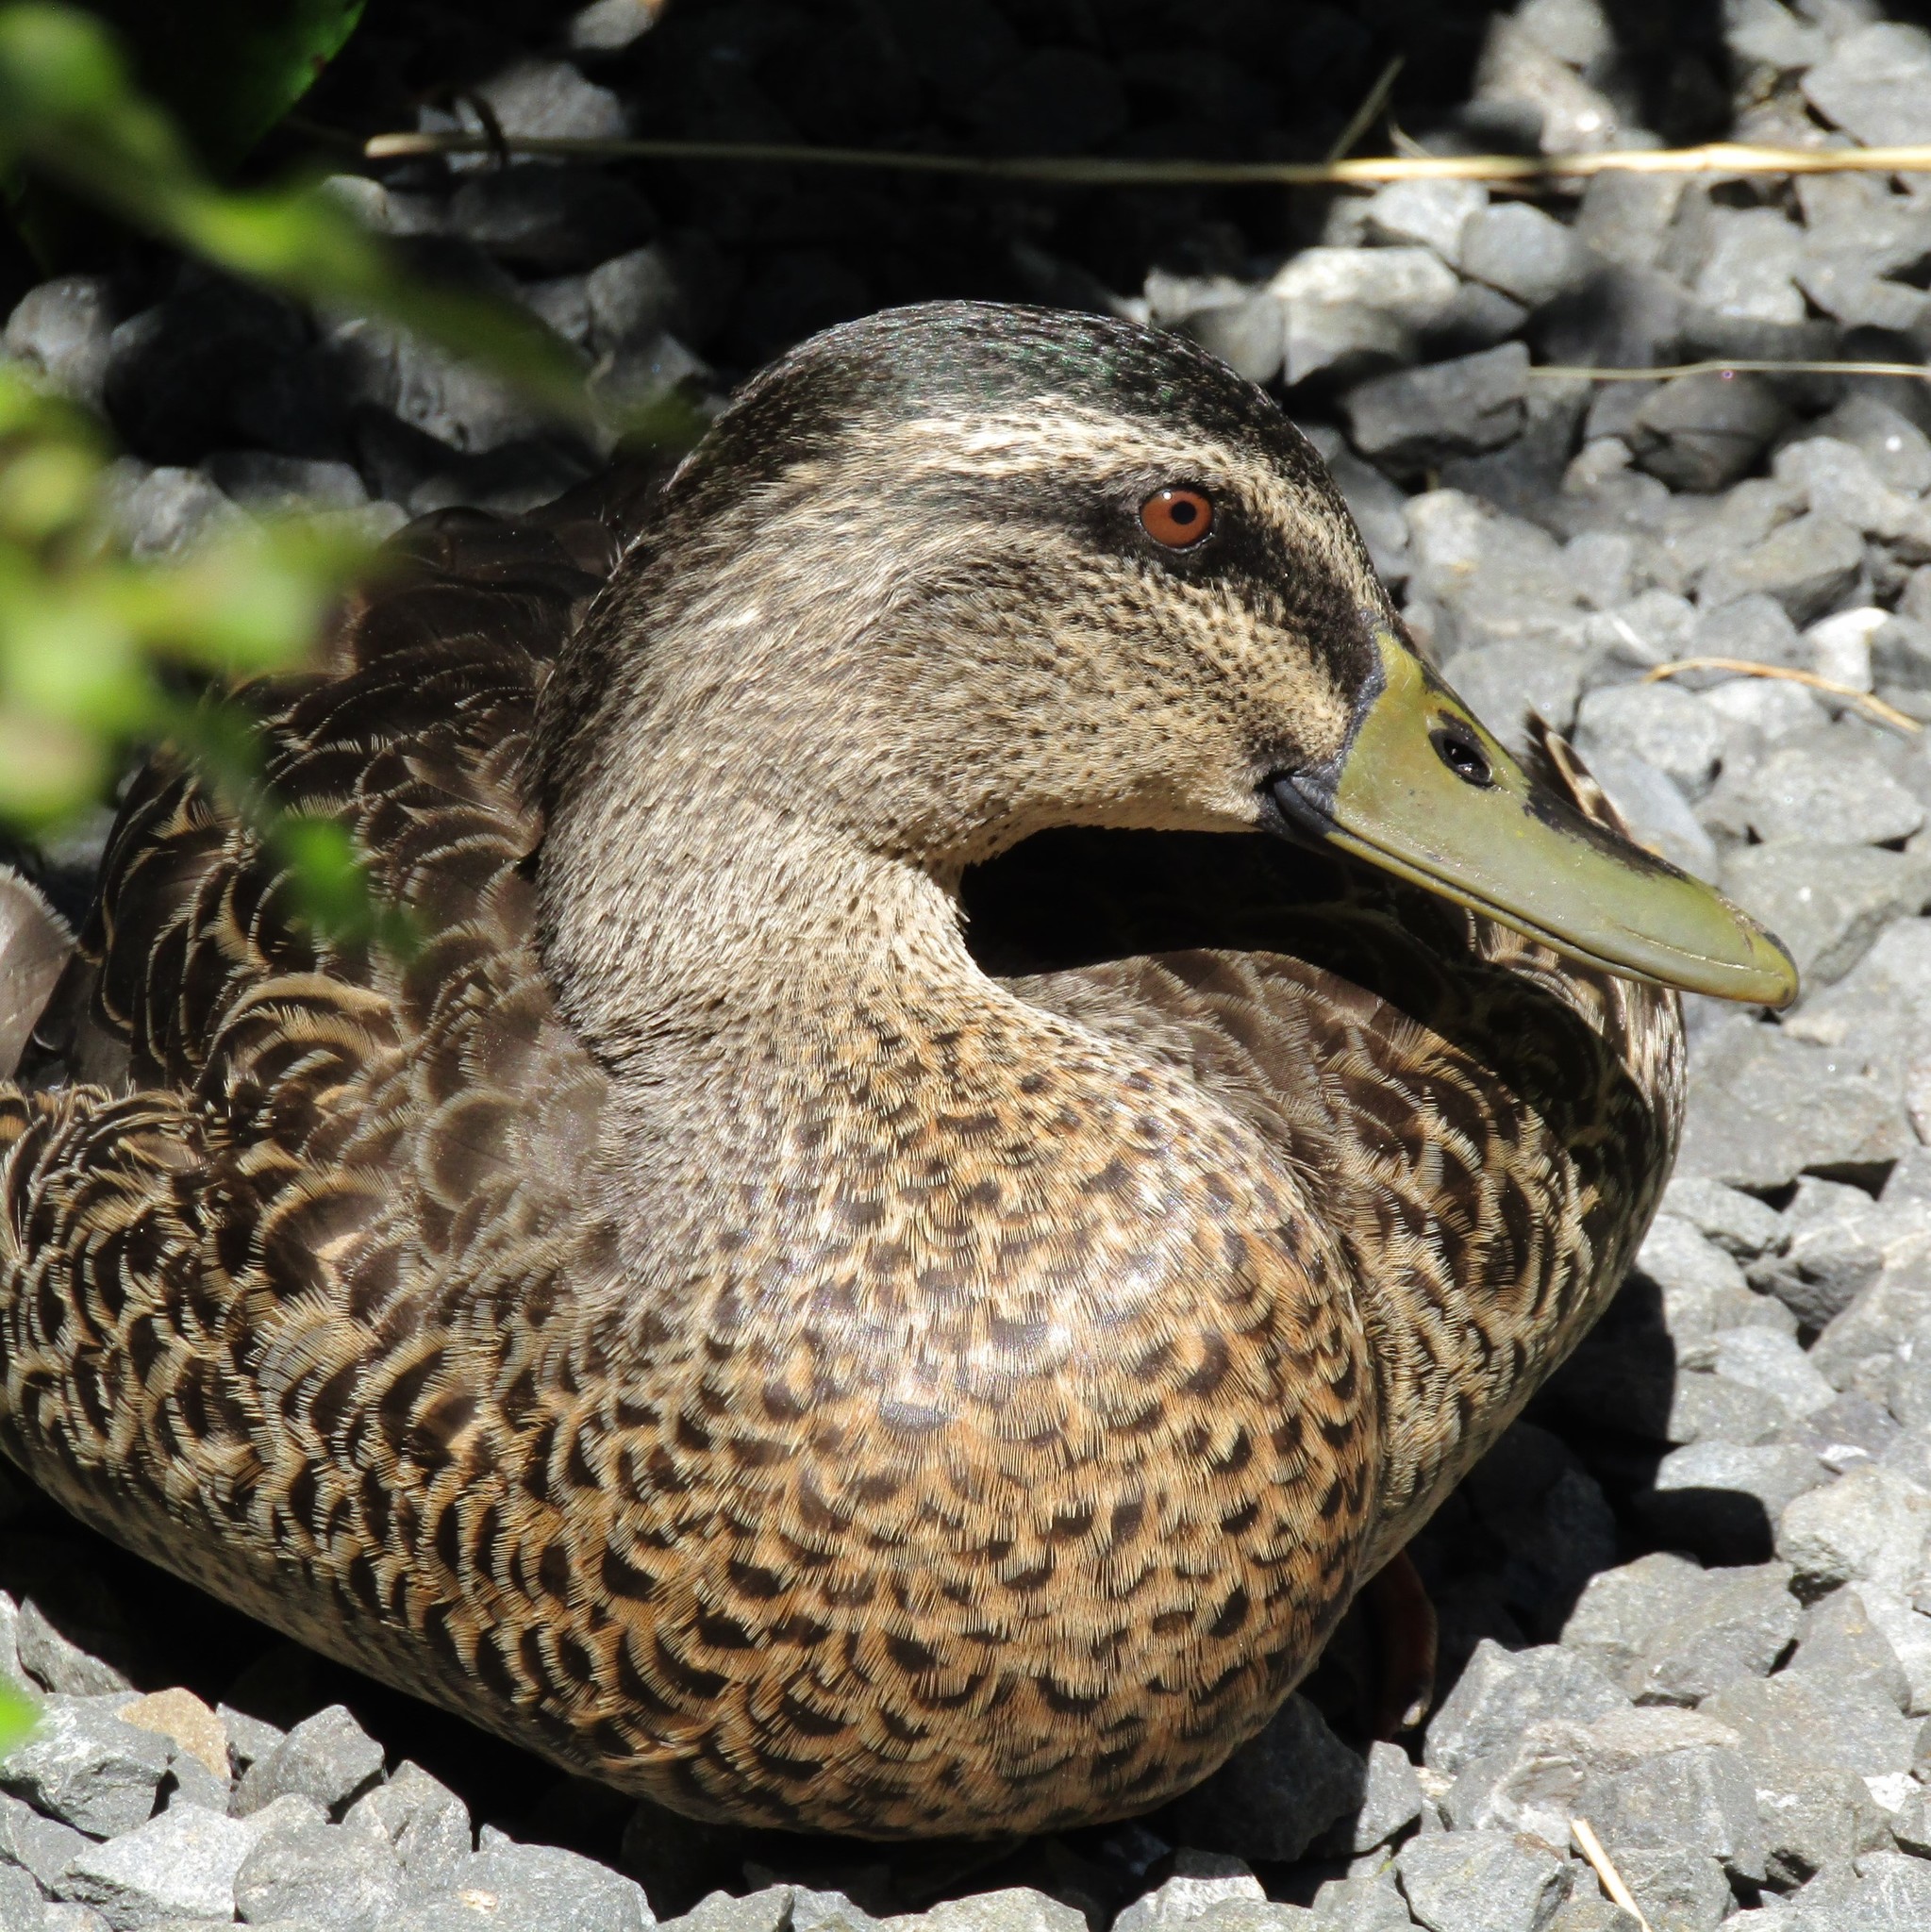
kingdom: Animalia
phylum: Chordata
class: Aves
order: Anseriformes
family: Anatidae
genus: Anas
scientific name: Anas
